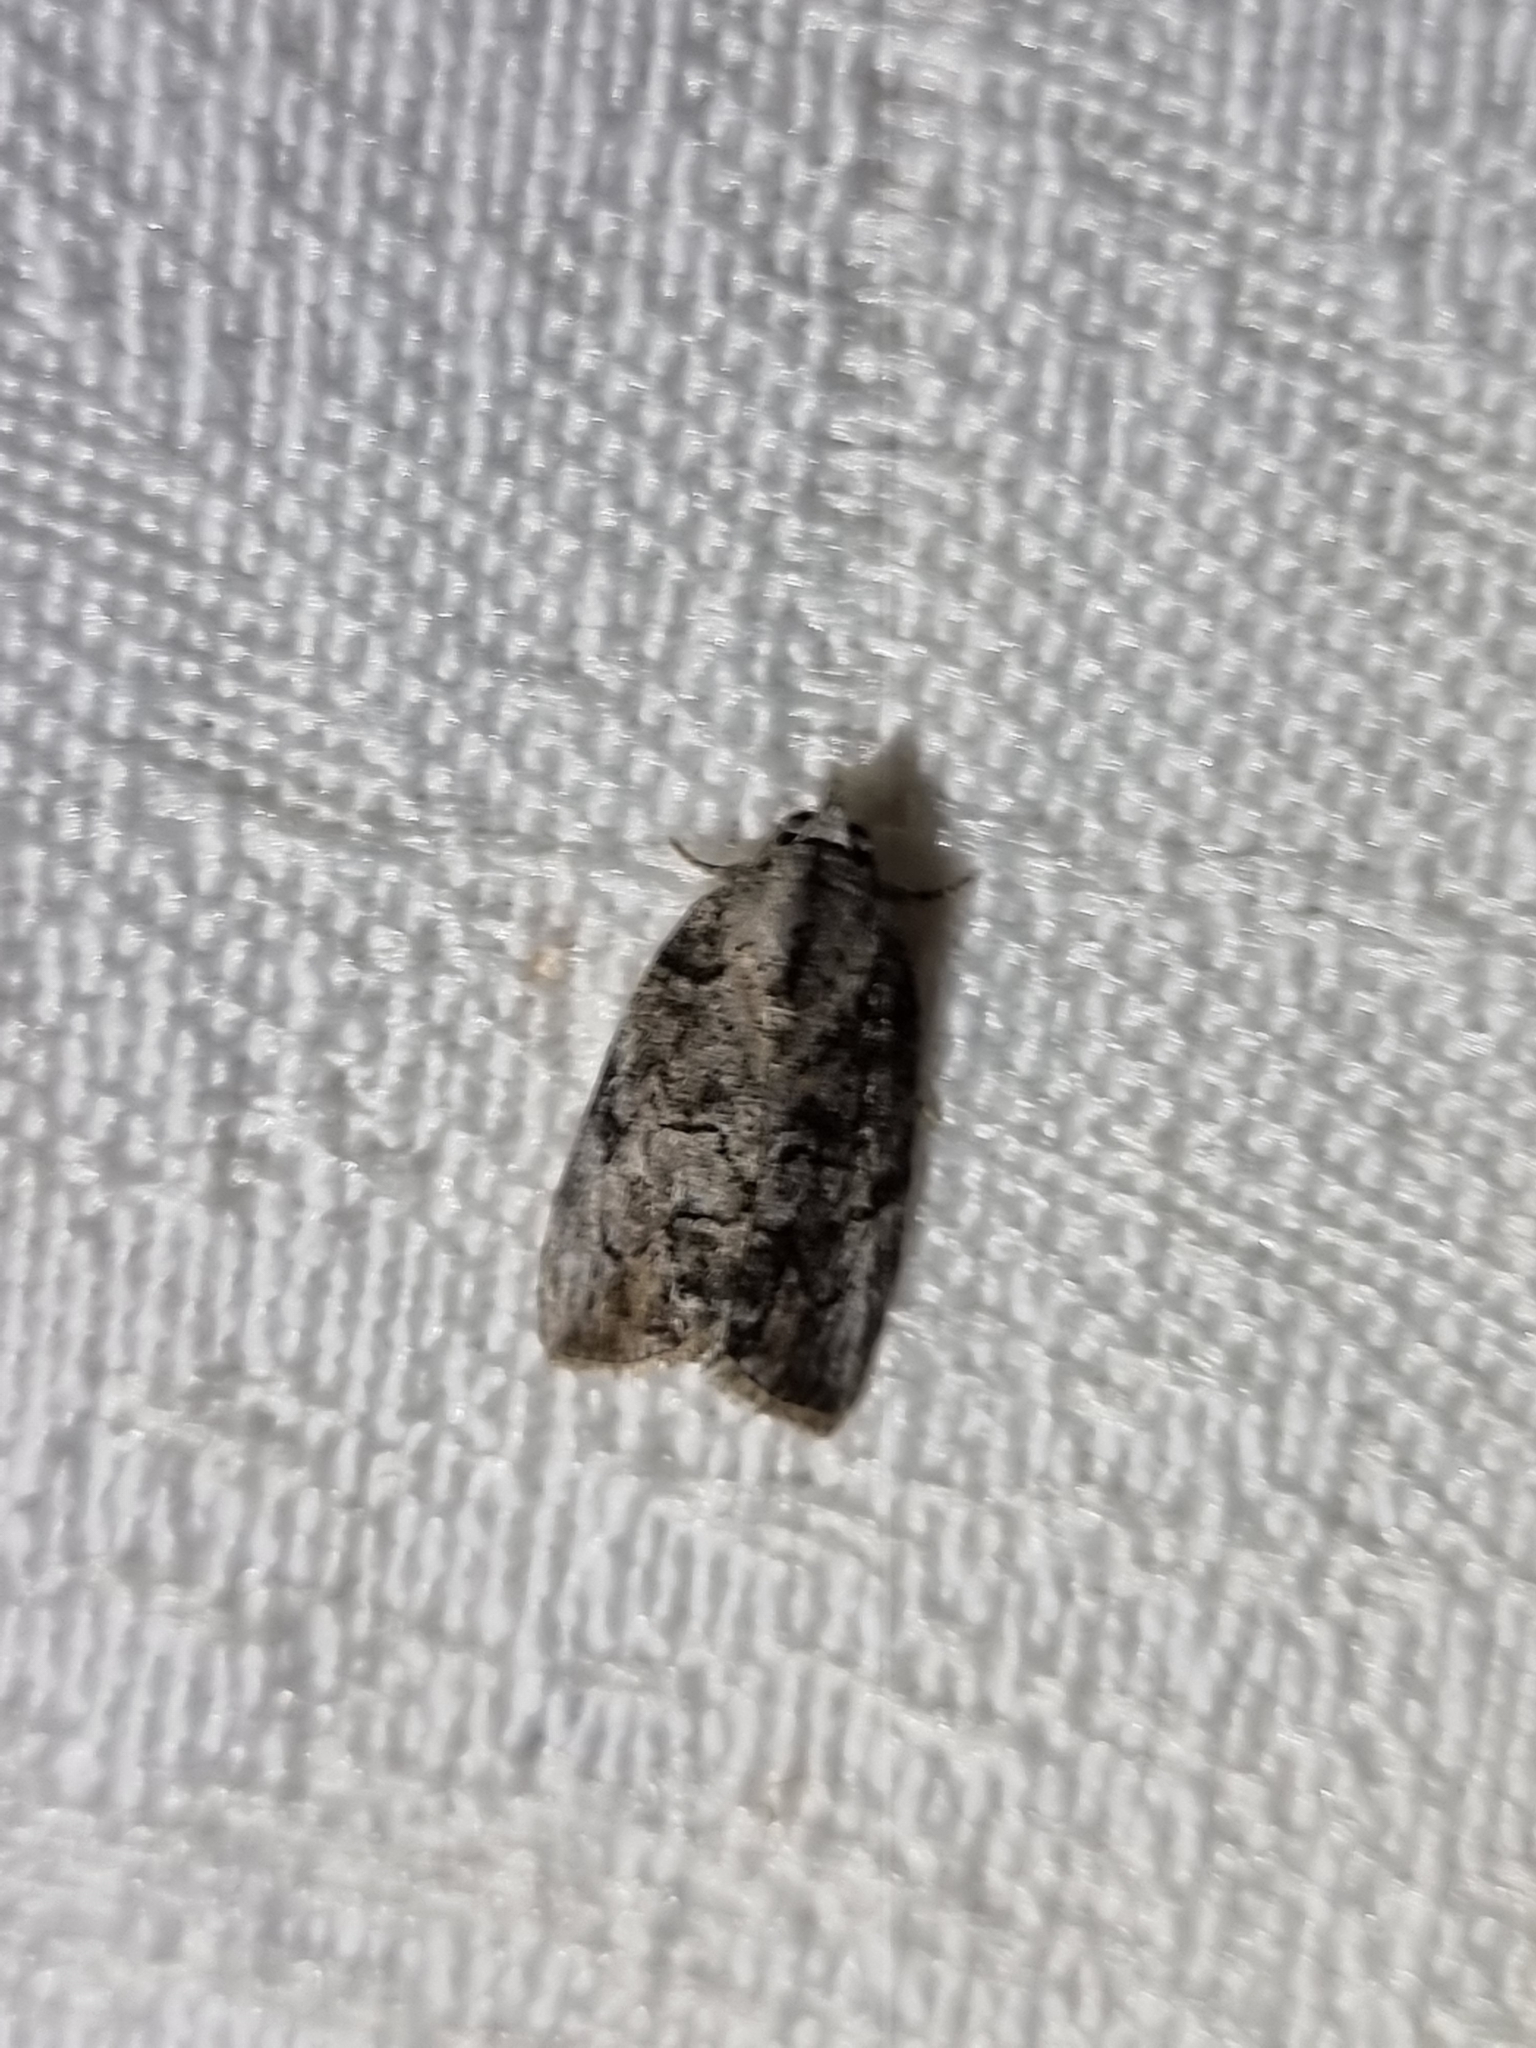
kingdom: Animalia
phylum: Arthropoda
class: Insecta
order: Lepidoptera
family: Nolidae
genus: Etanna
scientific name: Etanna clopaea
